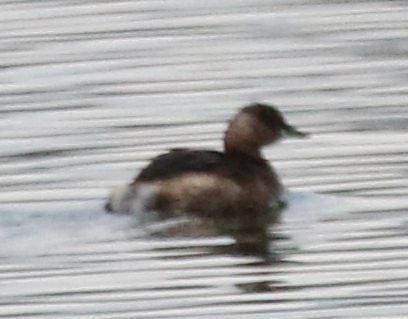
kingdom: Animalia
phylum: Chordata
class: Aves
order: Podicipediformes
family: Podicipedidae
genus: Tachybaptus
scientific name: Tachybaptus ruficollis
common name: Little grebe
